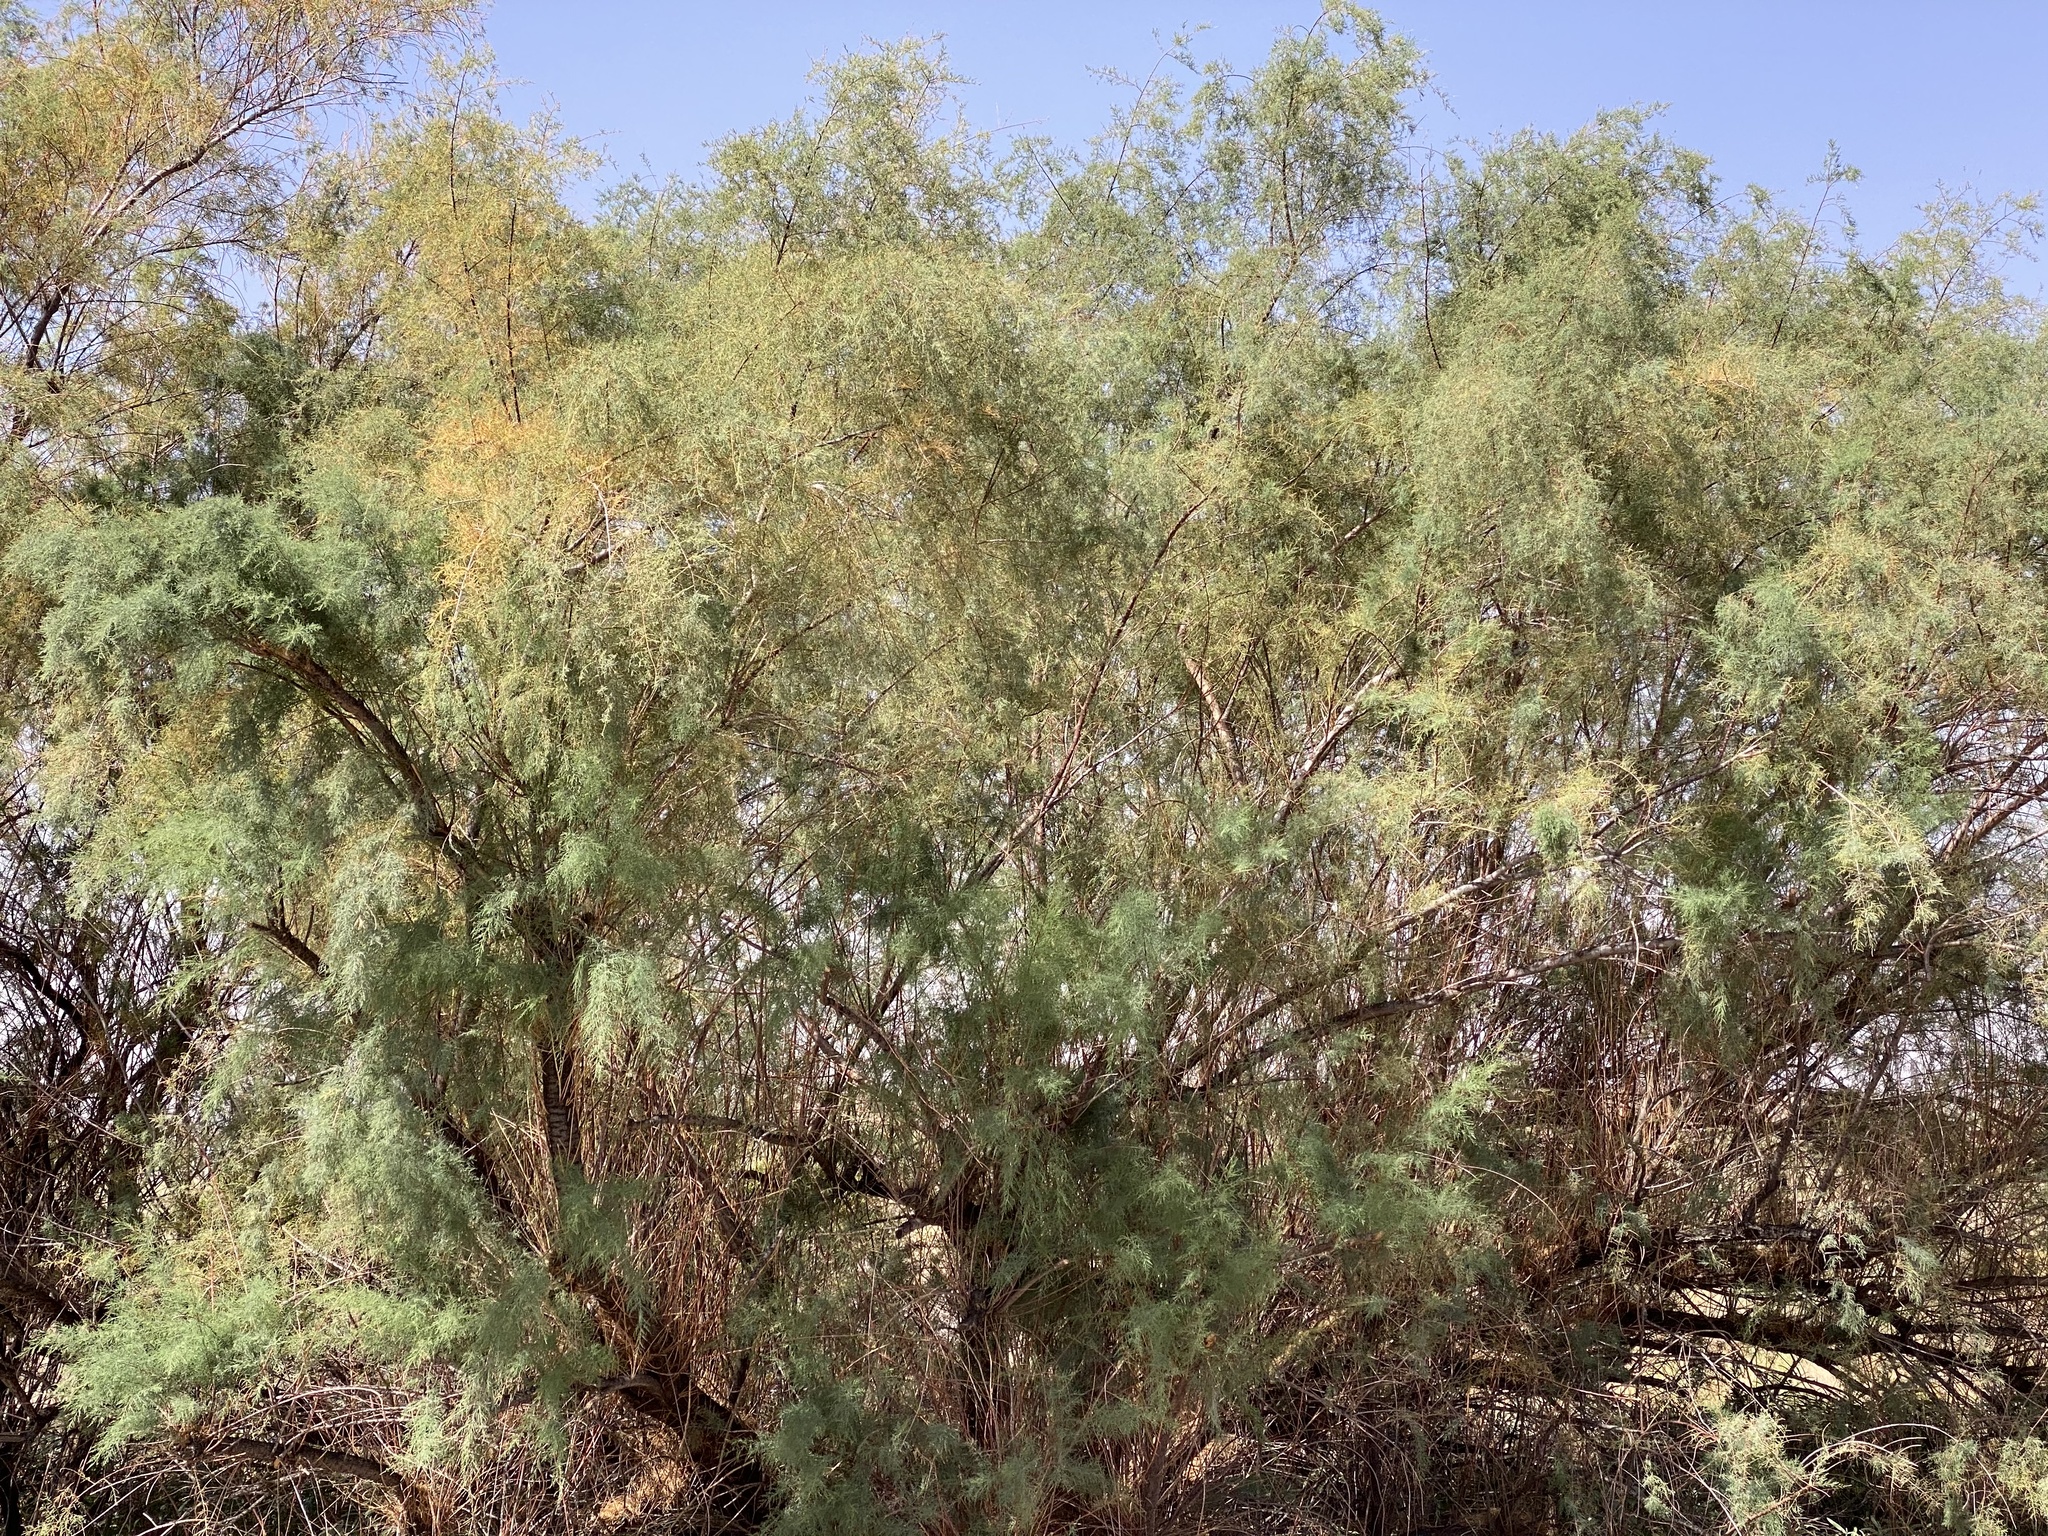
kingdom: Plantae
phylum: Tracheophyta
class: Magnoliopsida
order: Caryophyllales
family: Tamaricaceae
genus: Tamarix
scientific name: Tamarix
